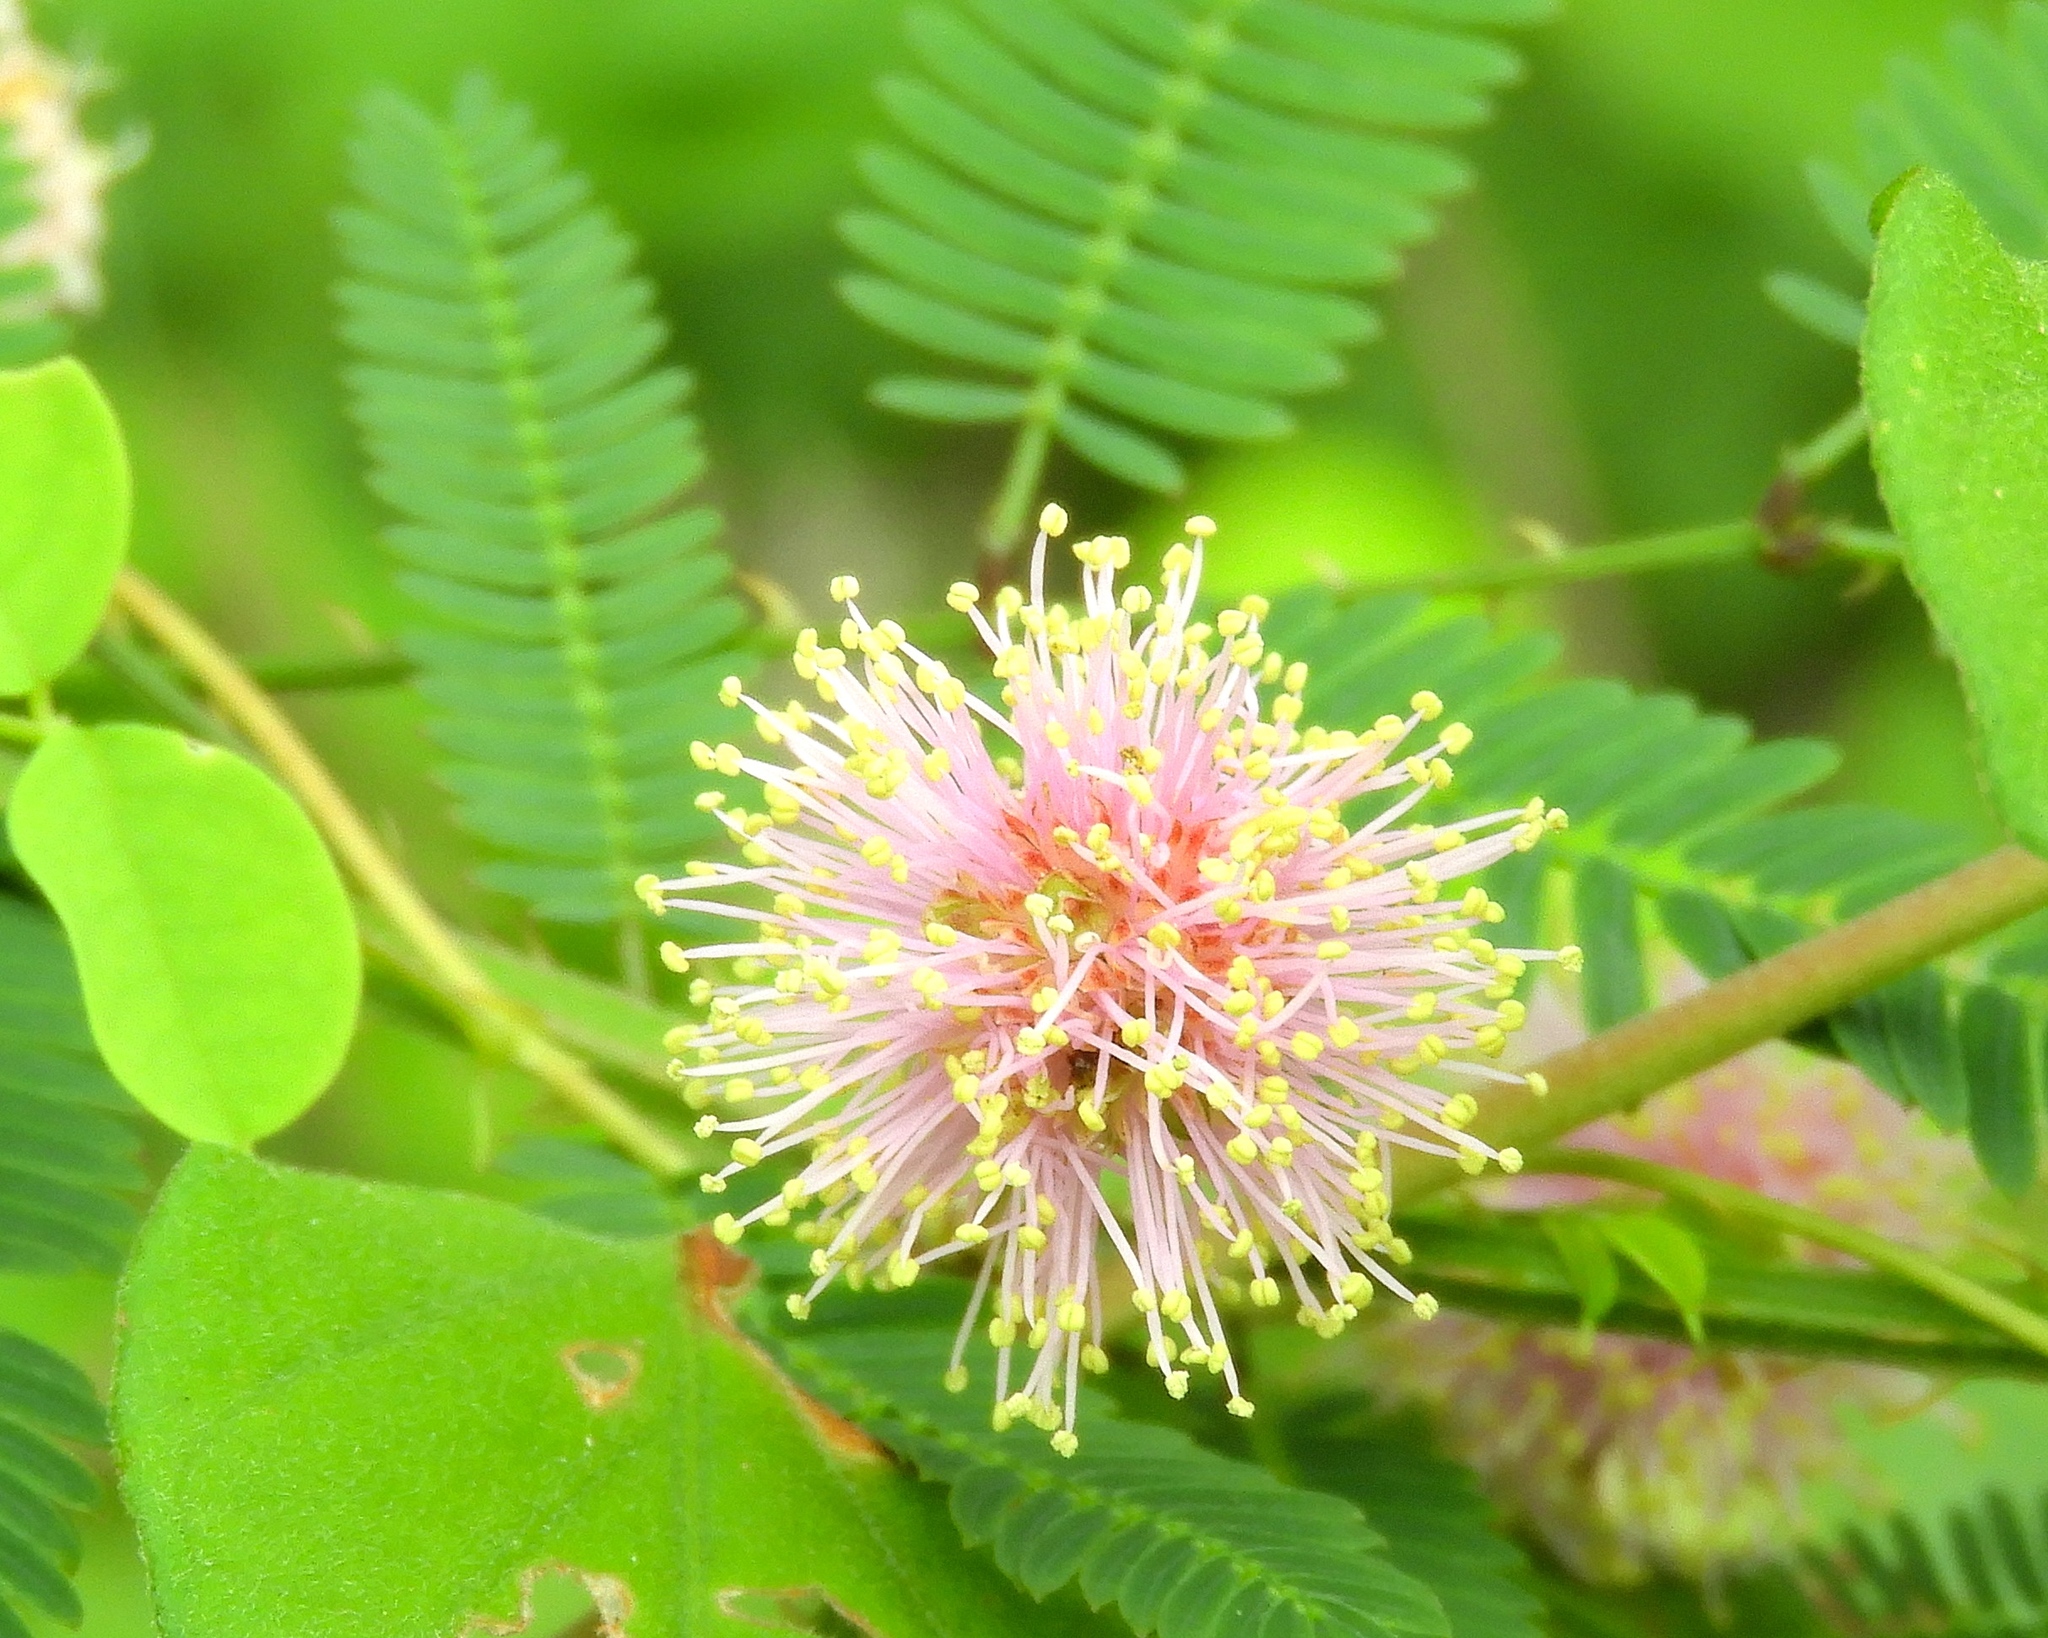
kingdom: Plantae
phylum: Tracheophyta
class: Magnoliopsida
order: Fabales
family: Fabaceae
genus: Mimosa
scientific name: Mimosa pudica
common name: Sensitive plant
